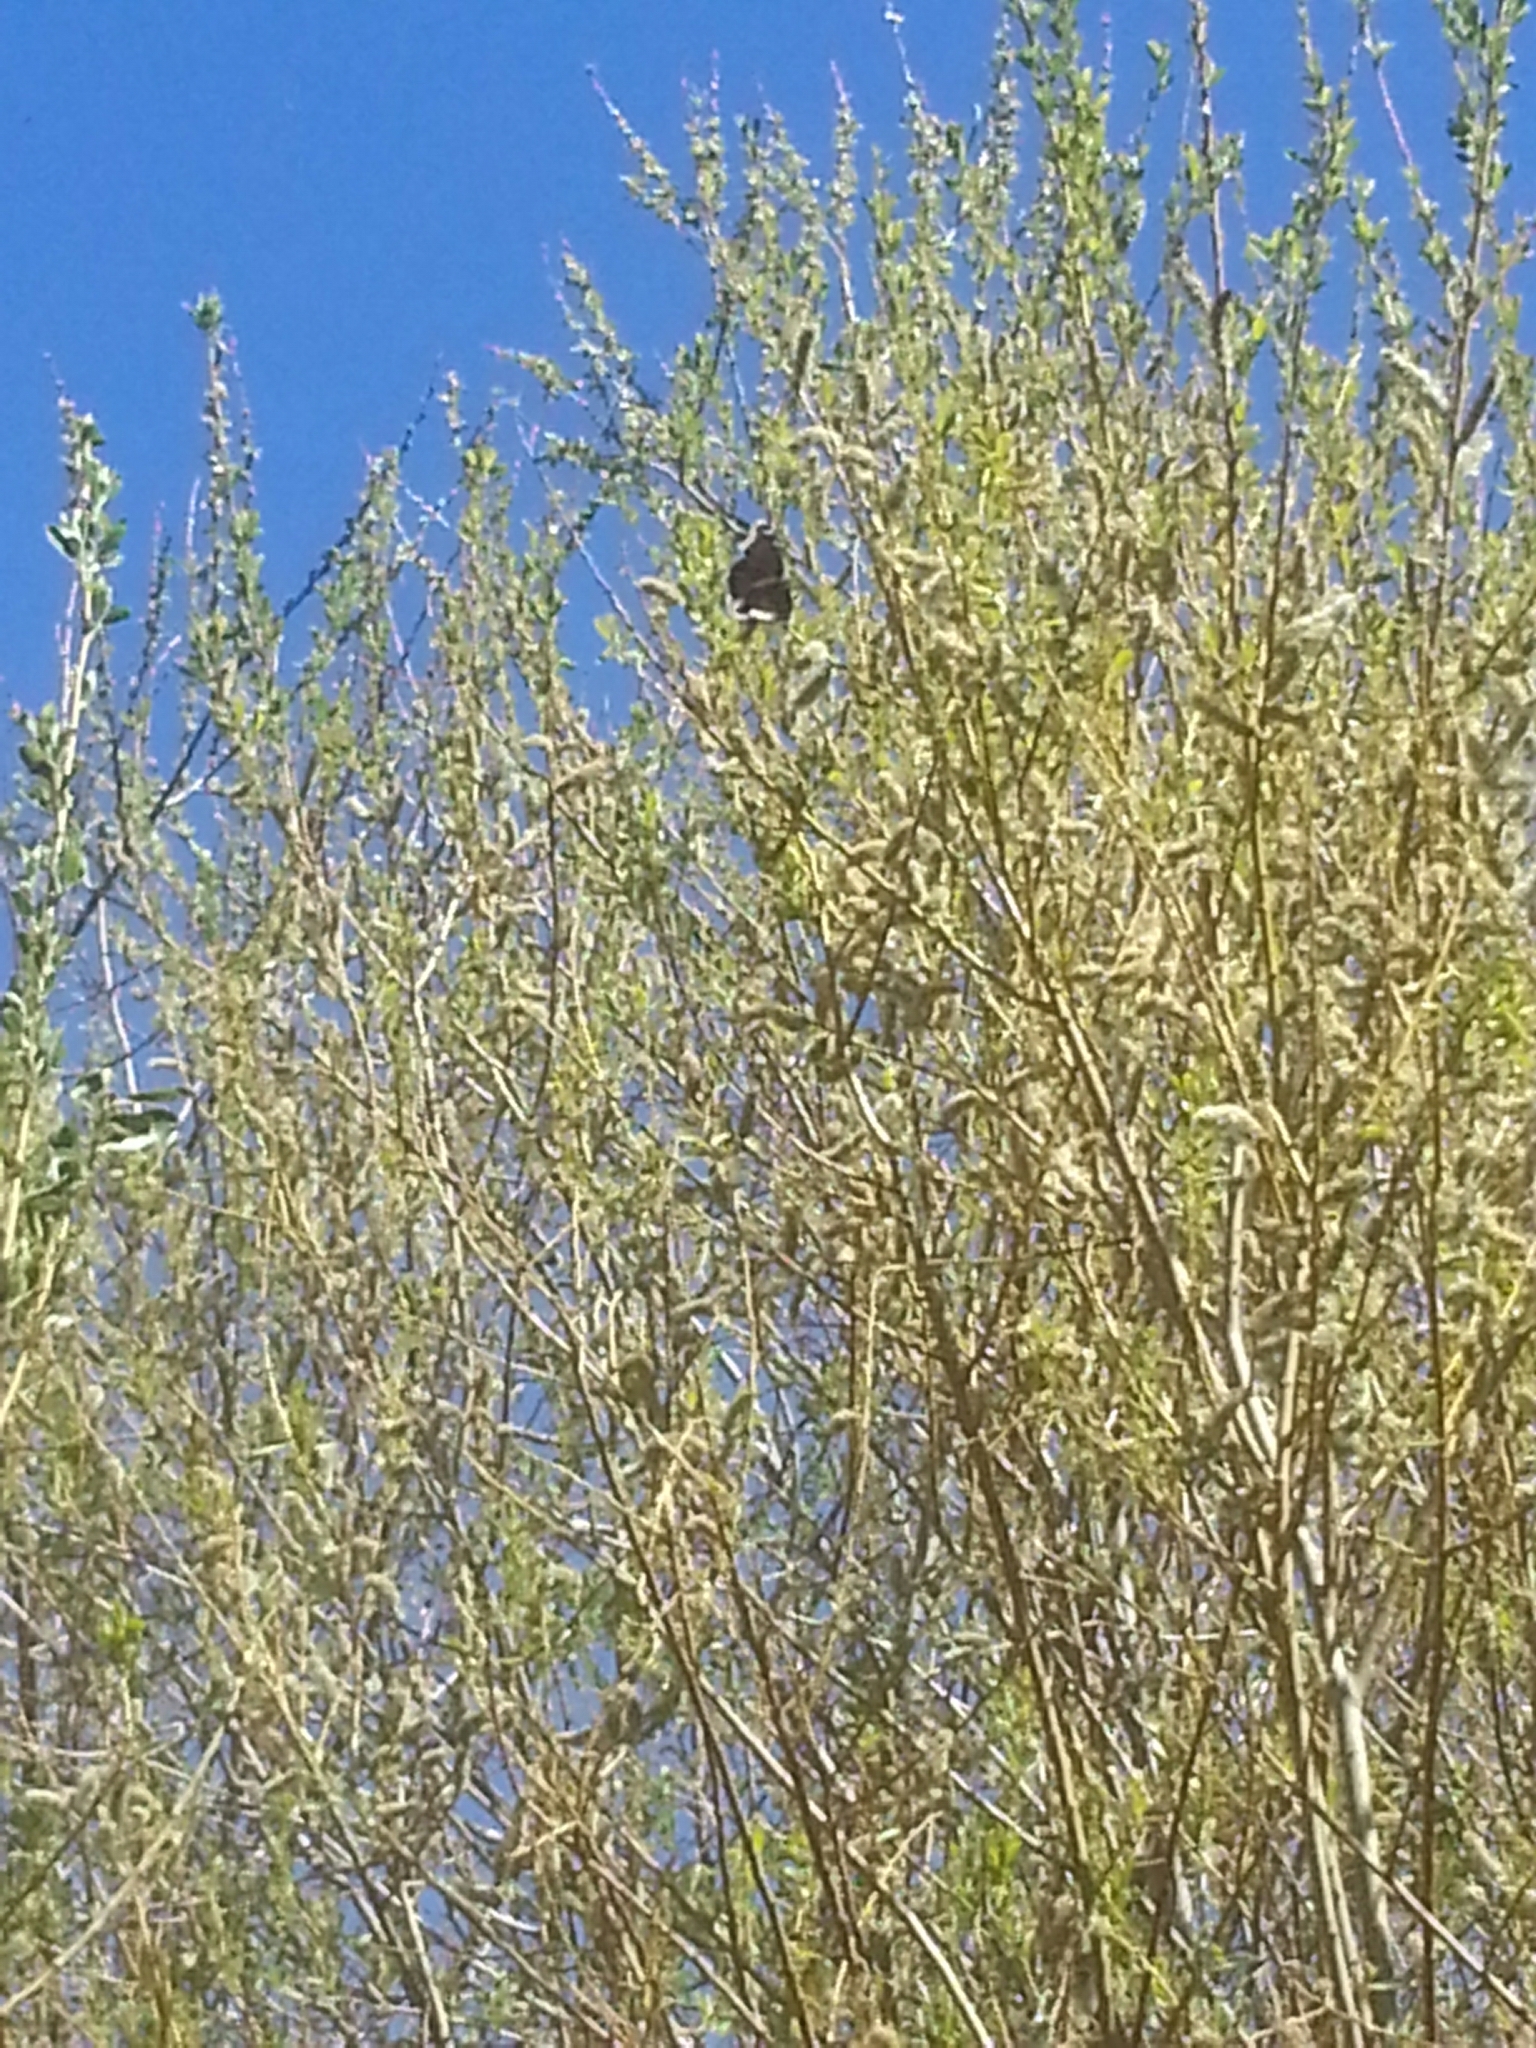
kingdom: Animalia
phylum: Arthropoda
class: Insecta
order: Lepidoptera
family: Nymphalidae
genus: Nymphalis
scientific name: Nymphalis antiopa
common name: Camberwell beauty
